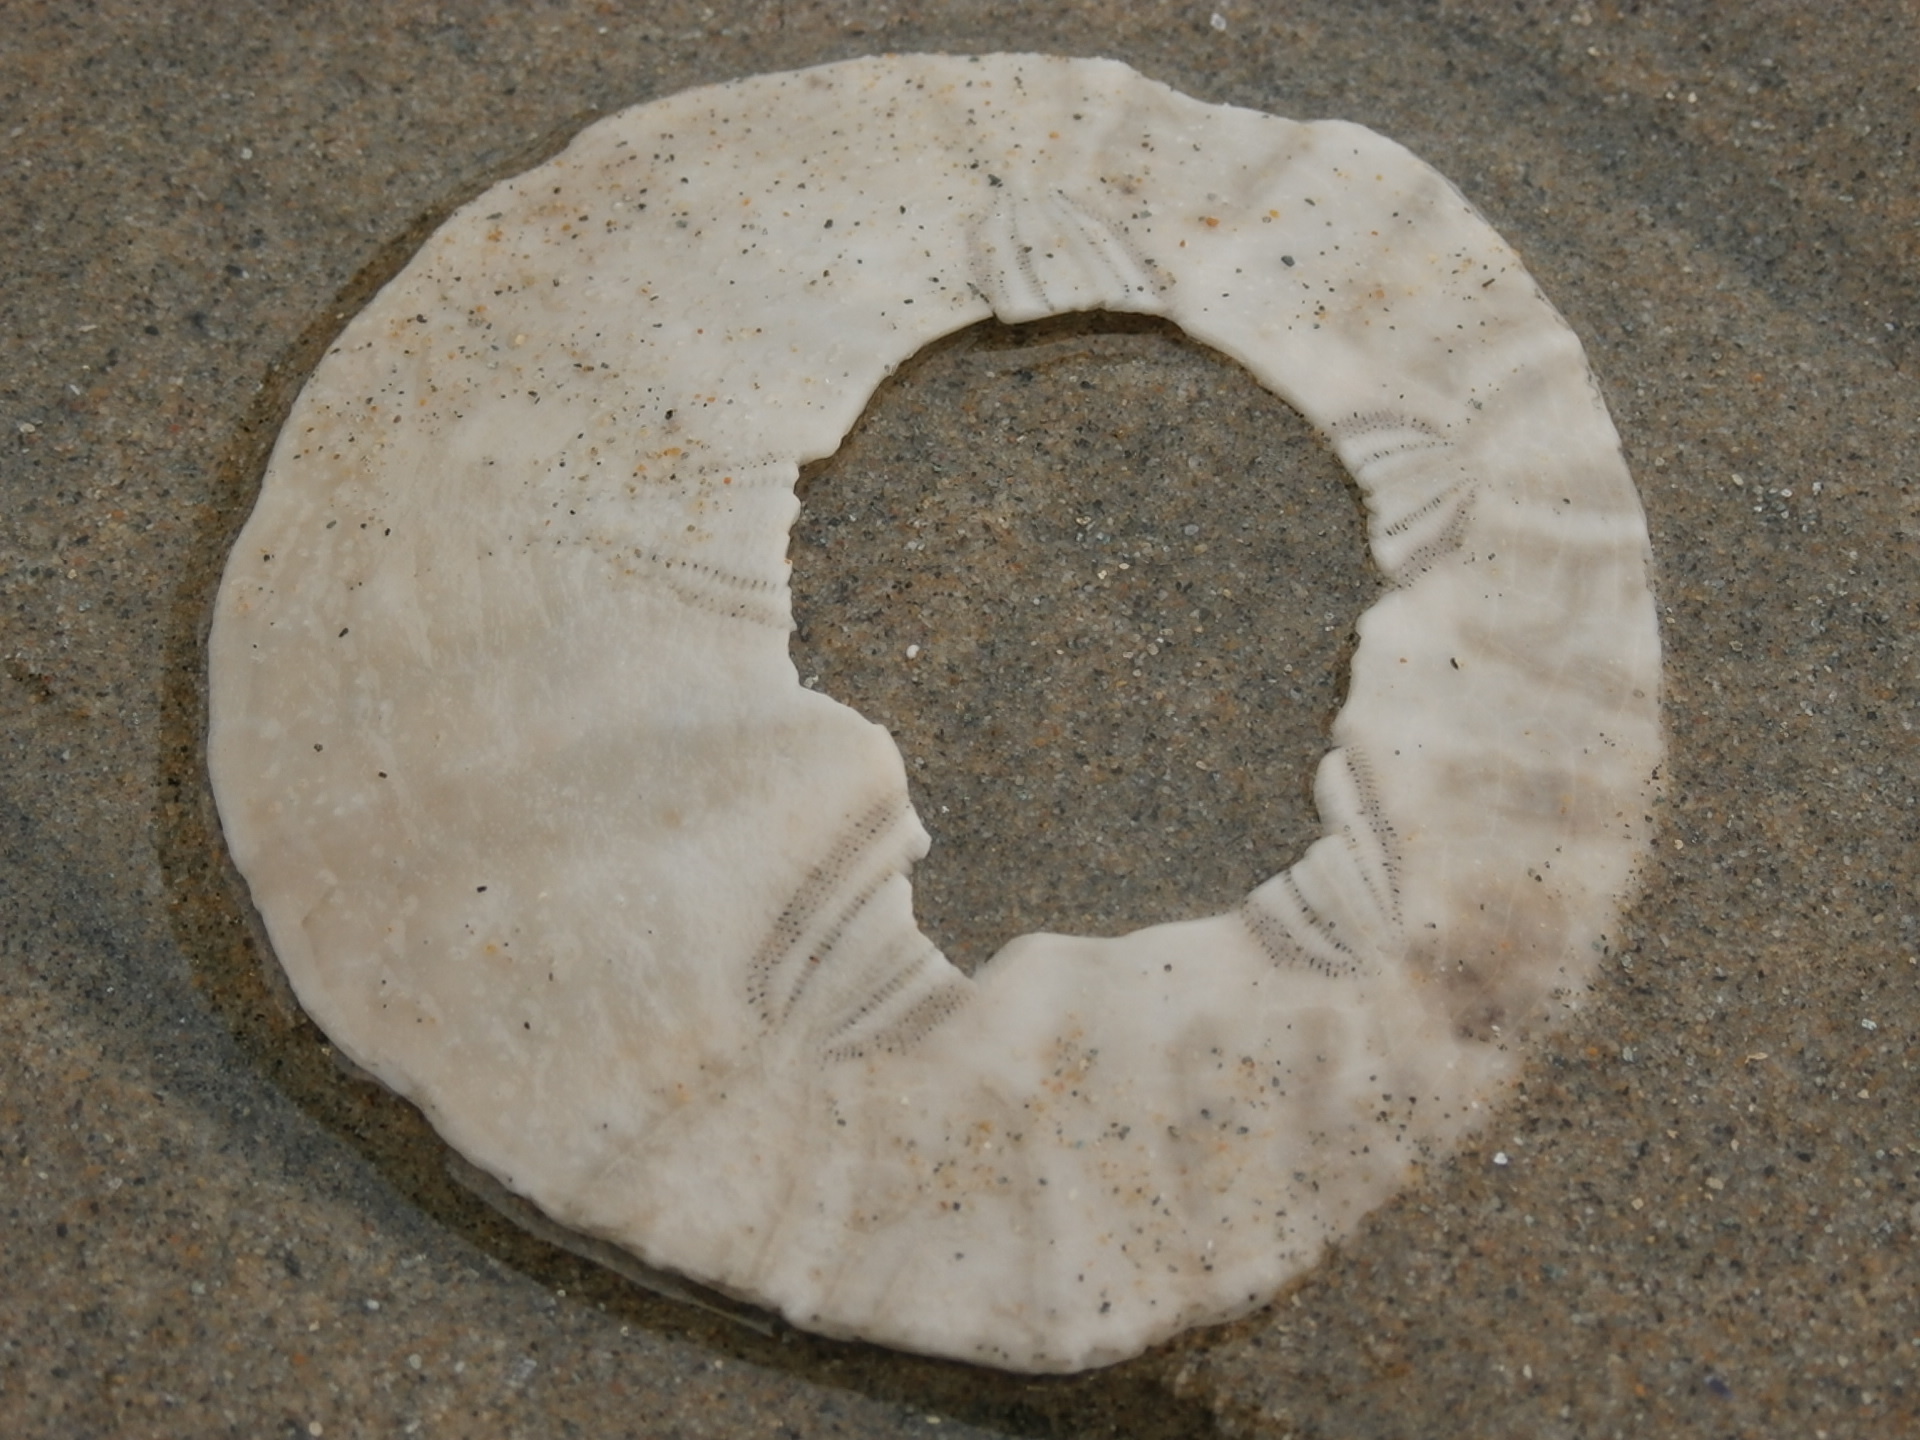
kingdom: Animalia
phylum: Echinodermata
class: Echinoidea
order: Echinolampadacea
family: Dendrasteridae
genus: Dendraster
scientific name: Dendraster excentricus
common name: Eccentric sand dollar sea urchin
